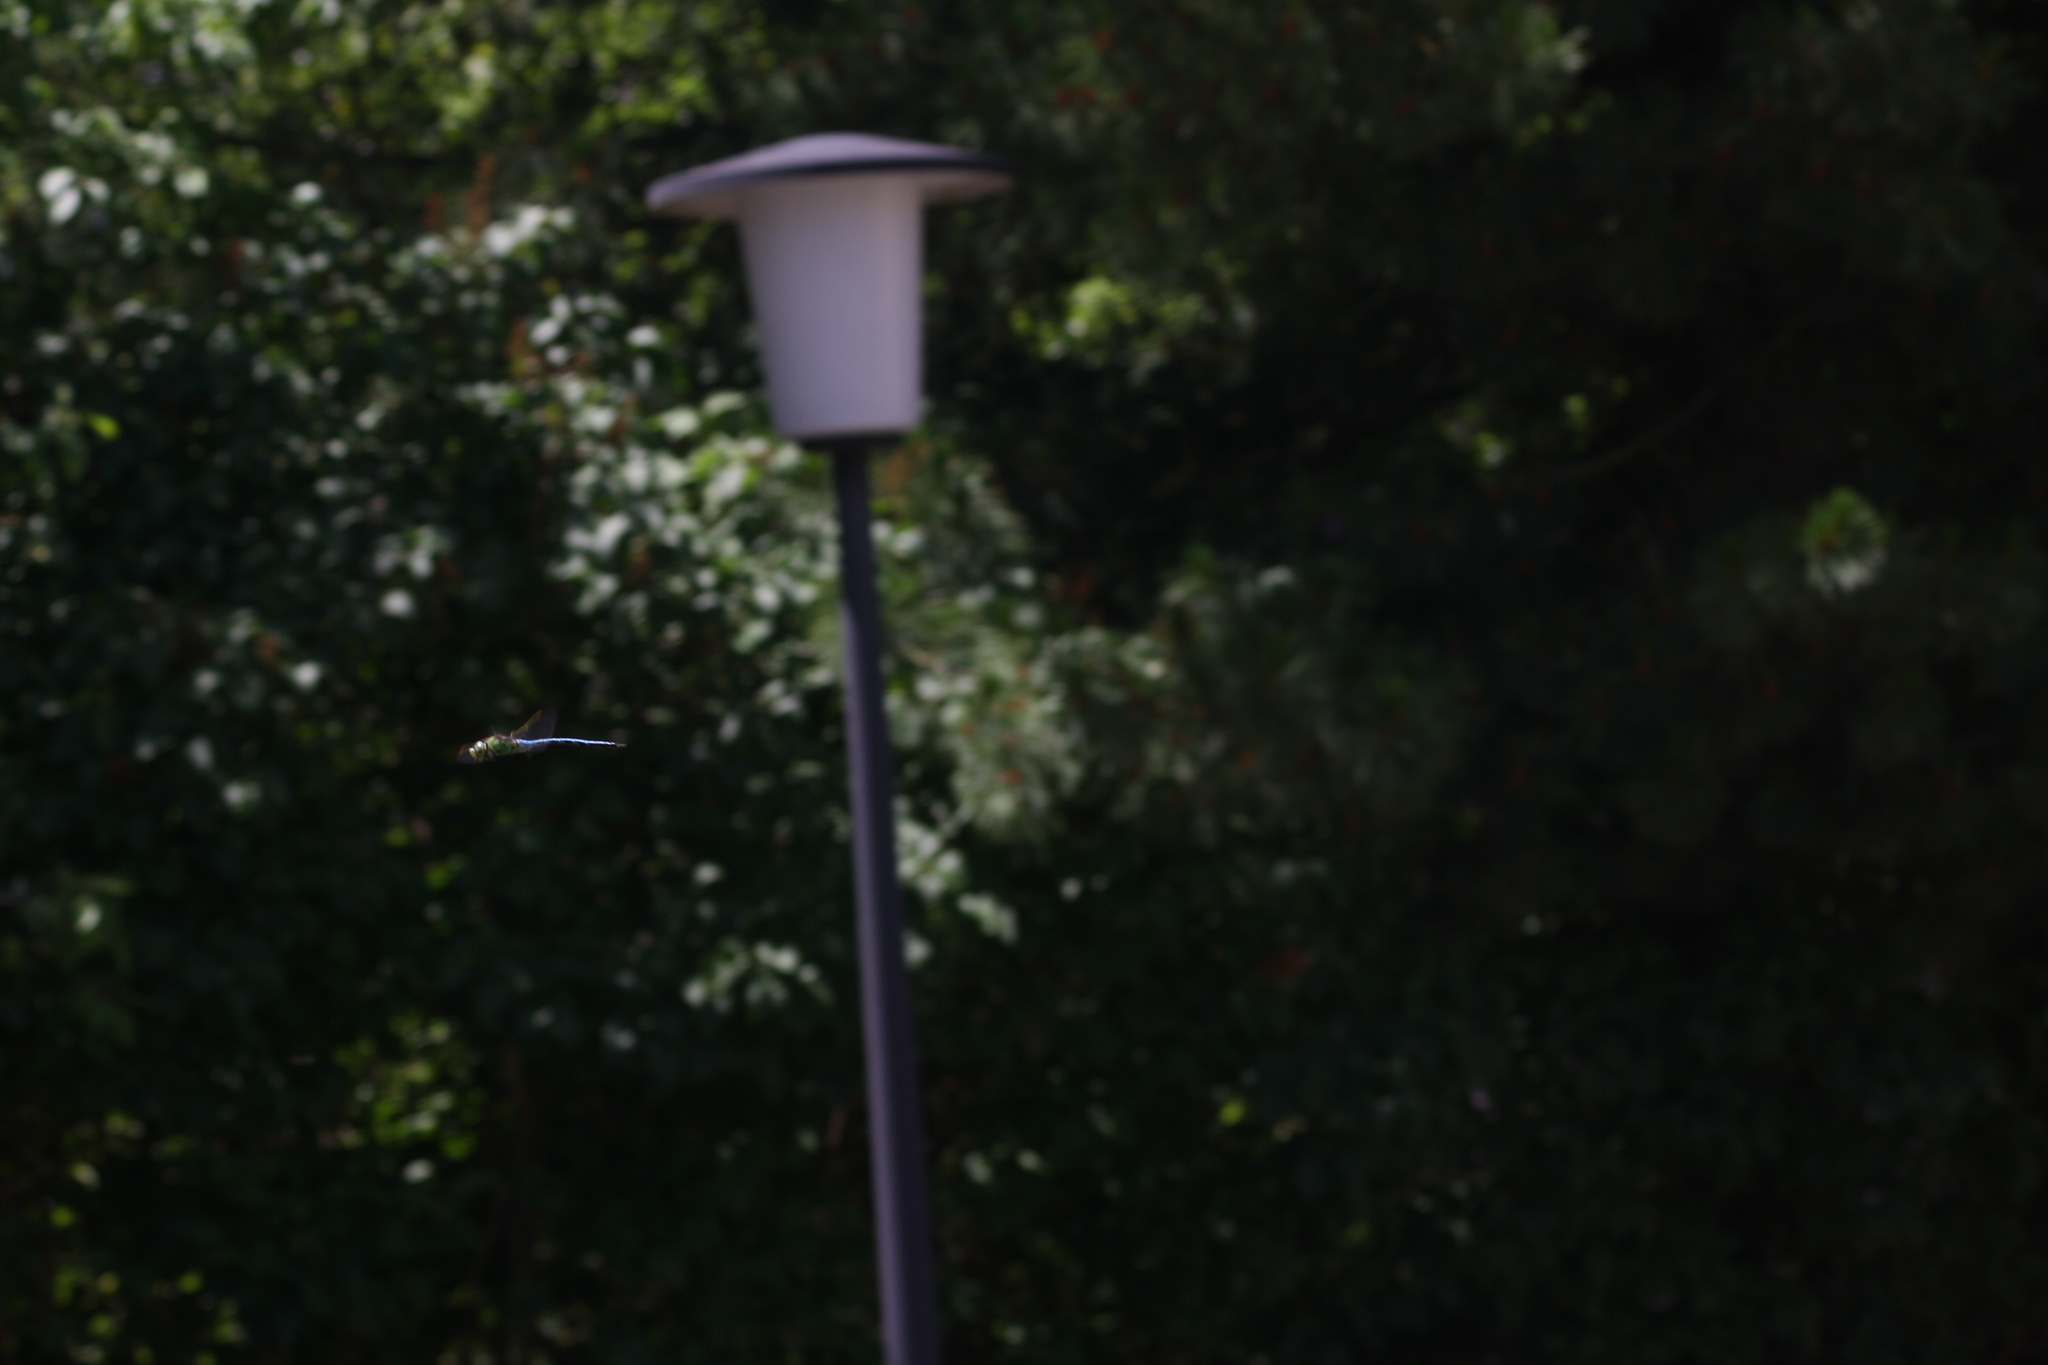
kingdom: Animalia
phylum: Arthropoda
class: Insecta
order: Odonata
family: Aeshnidae
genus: Anax
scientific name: Anax imperator
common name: Emperor dragonfly
